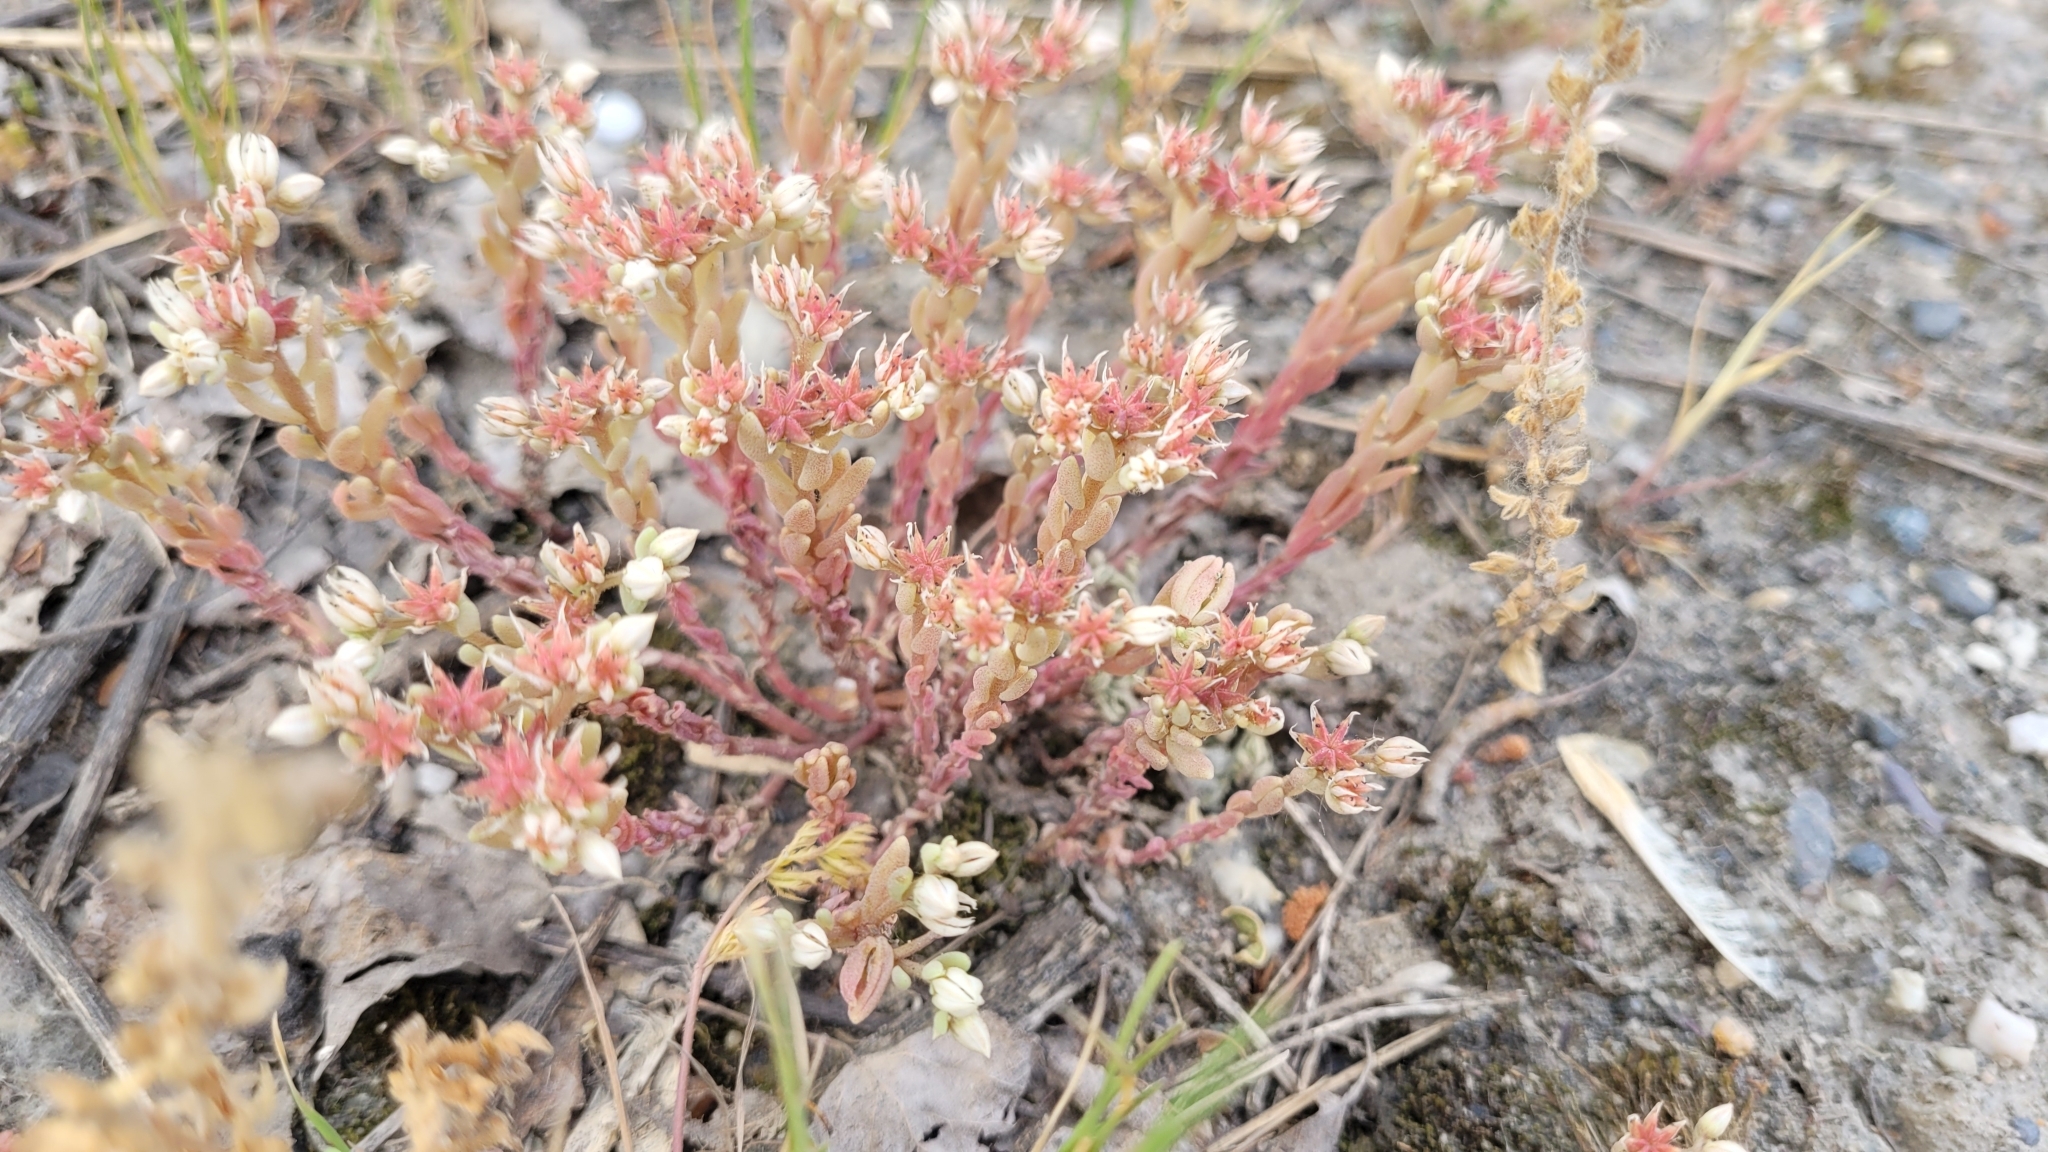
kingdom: Plantae
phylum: Tracheophyta
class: Magnoliopsida
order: Saxifragales
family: Crassulaceae
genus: Sedum
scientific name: Sedum hispanicum
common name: Spanish stonecrop
